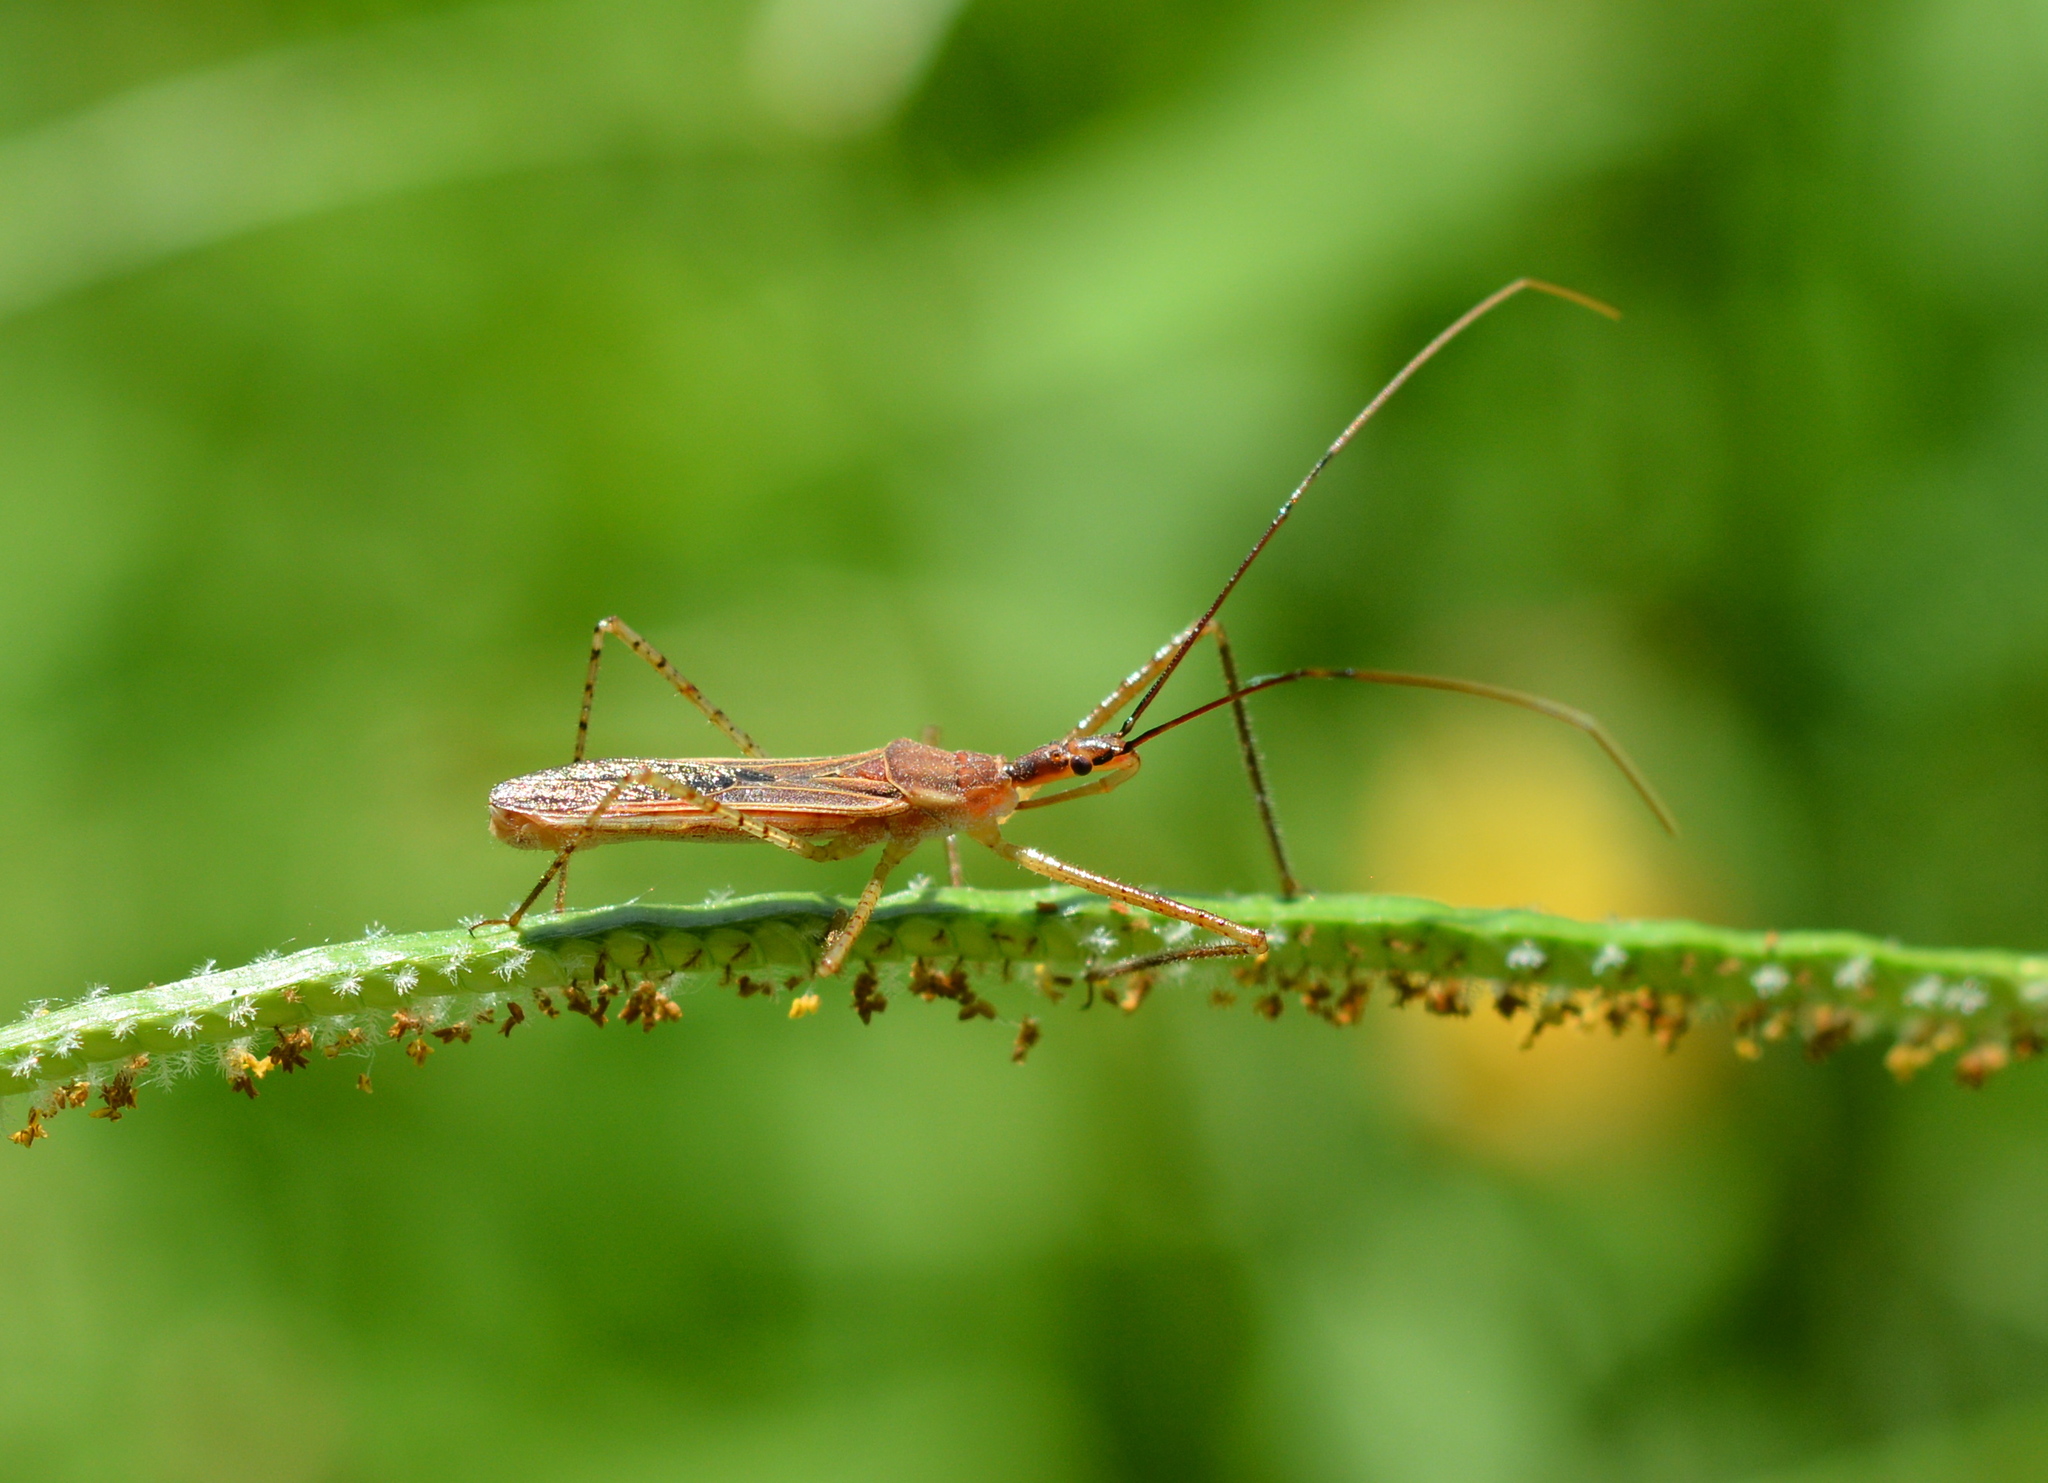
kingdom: Animalia
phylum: Arthropoda
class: Insecta
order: Hemiptera
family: Reduviidae
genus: Zelus
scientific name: Zelus cervicalis
